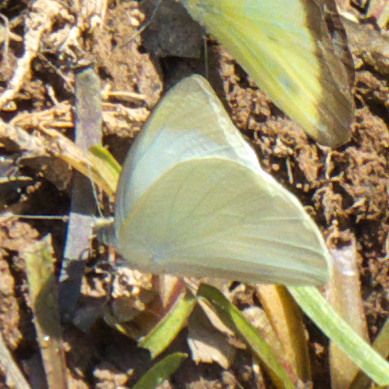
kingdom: Animalia
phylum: Arthropoda
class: Insecta
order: Lepidoptera
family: Pieridae
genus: Appias
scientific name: Appias albina
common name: Common albatross
